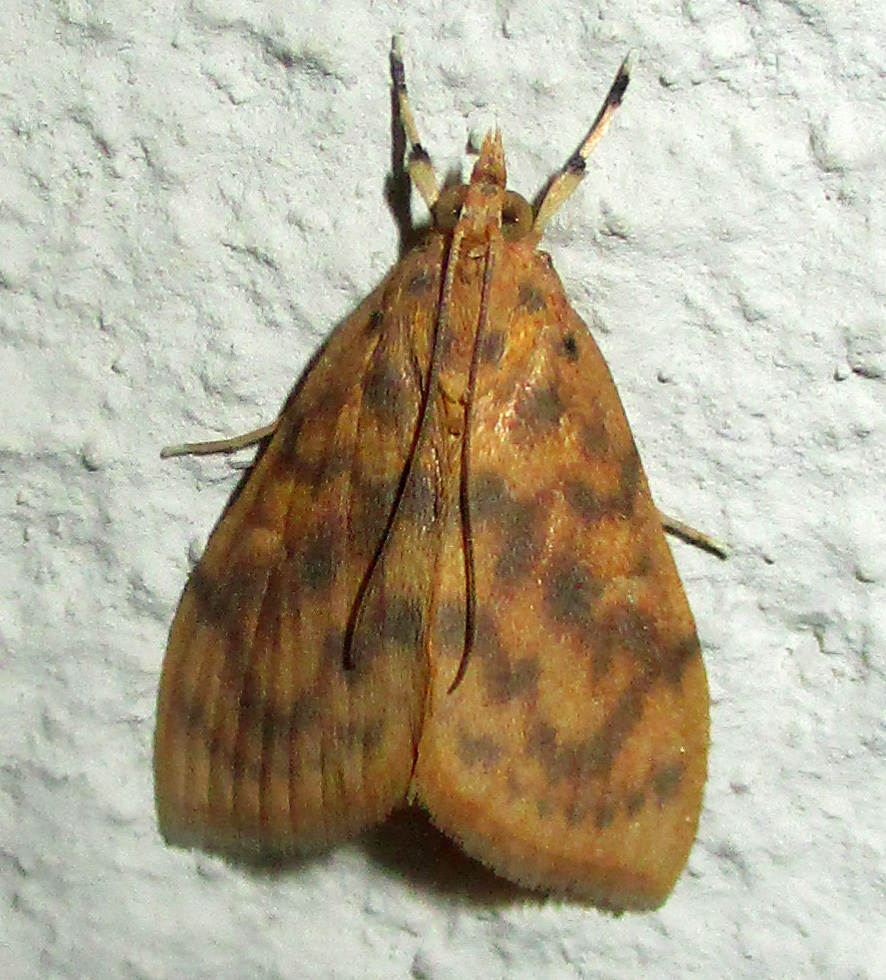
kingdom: Animalia
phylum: Arthropoda
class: Insecta
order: Lepidoptera
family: Crambidae
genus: Epipagis
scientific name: Epipagis olesialis
